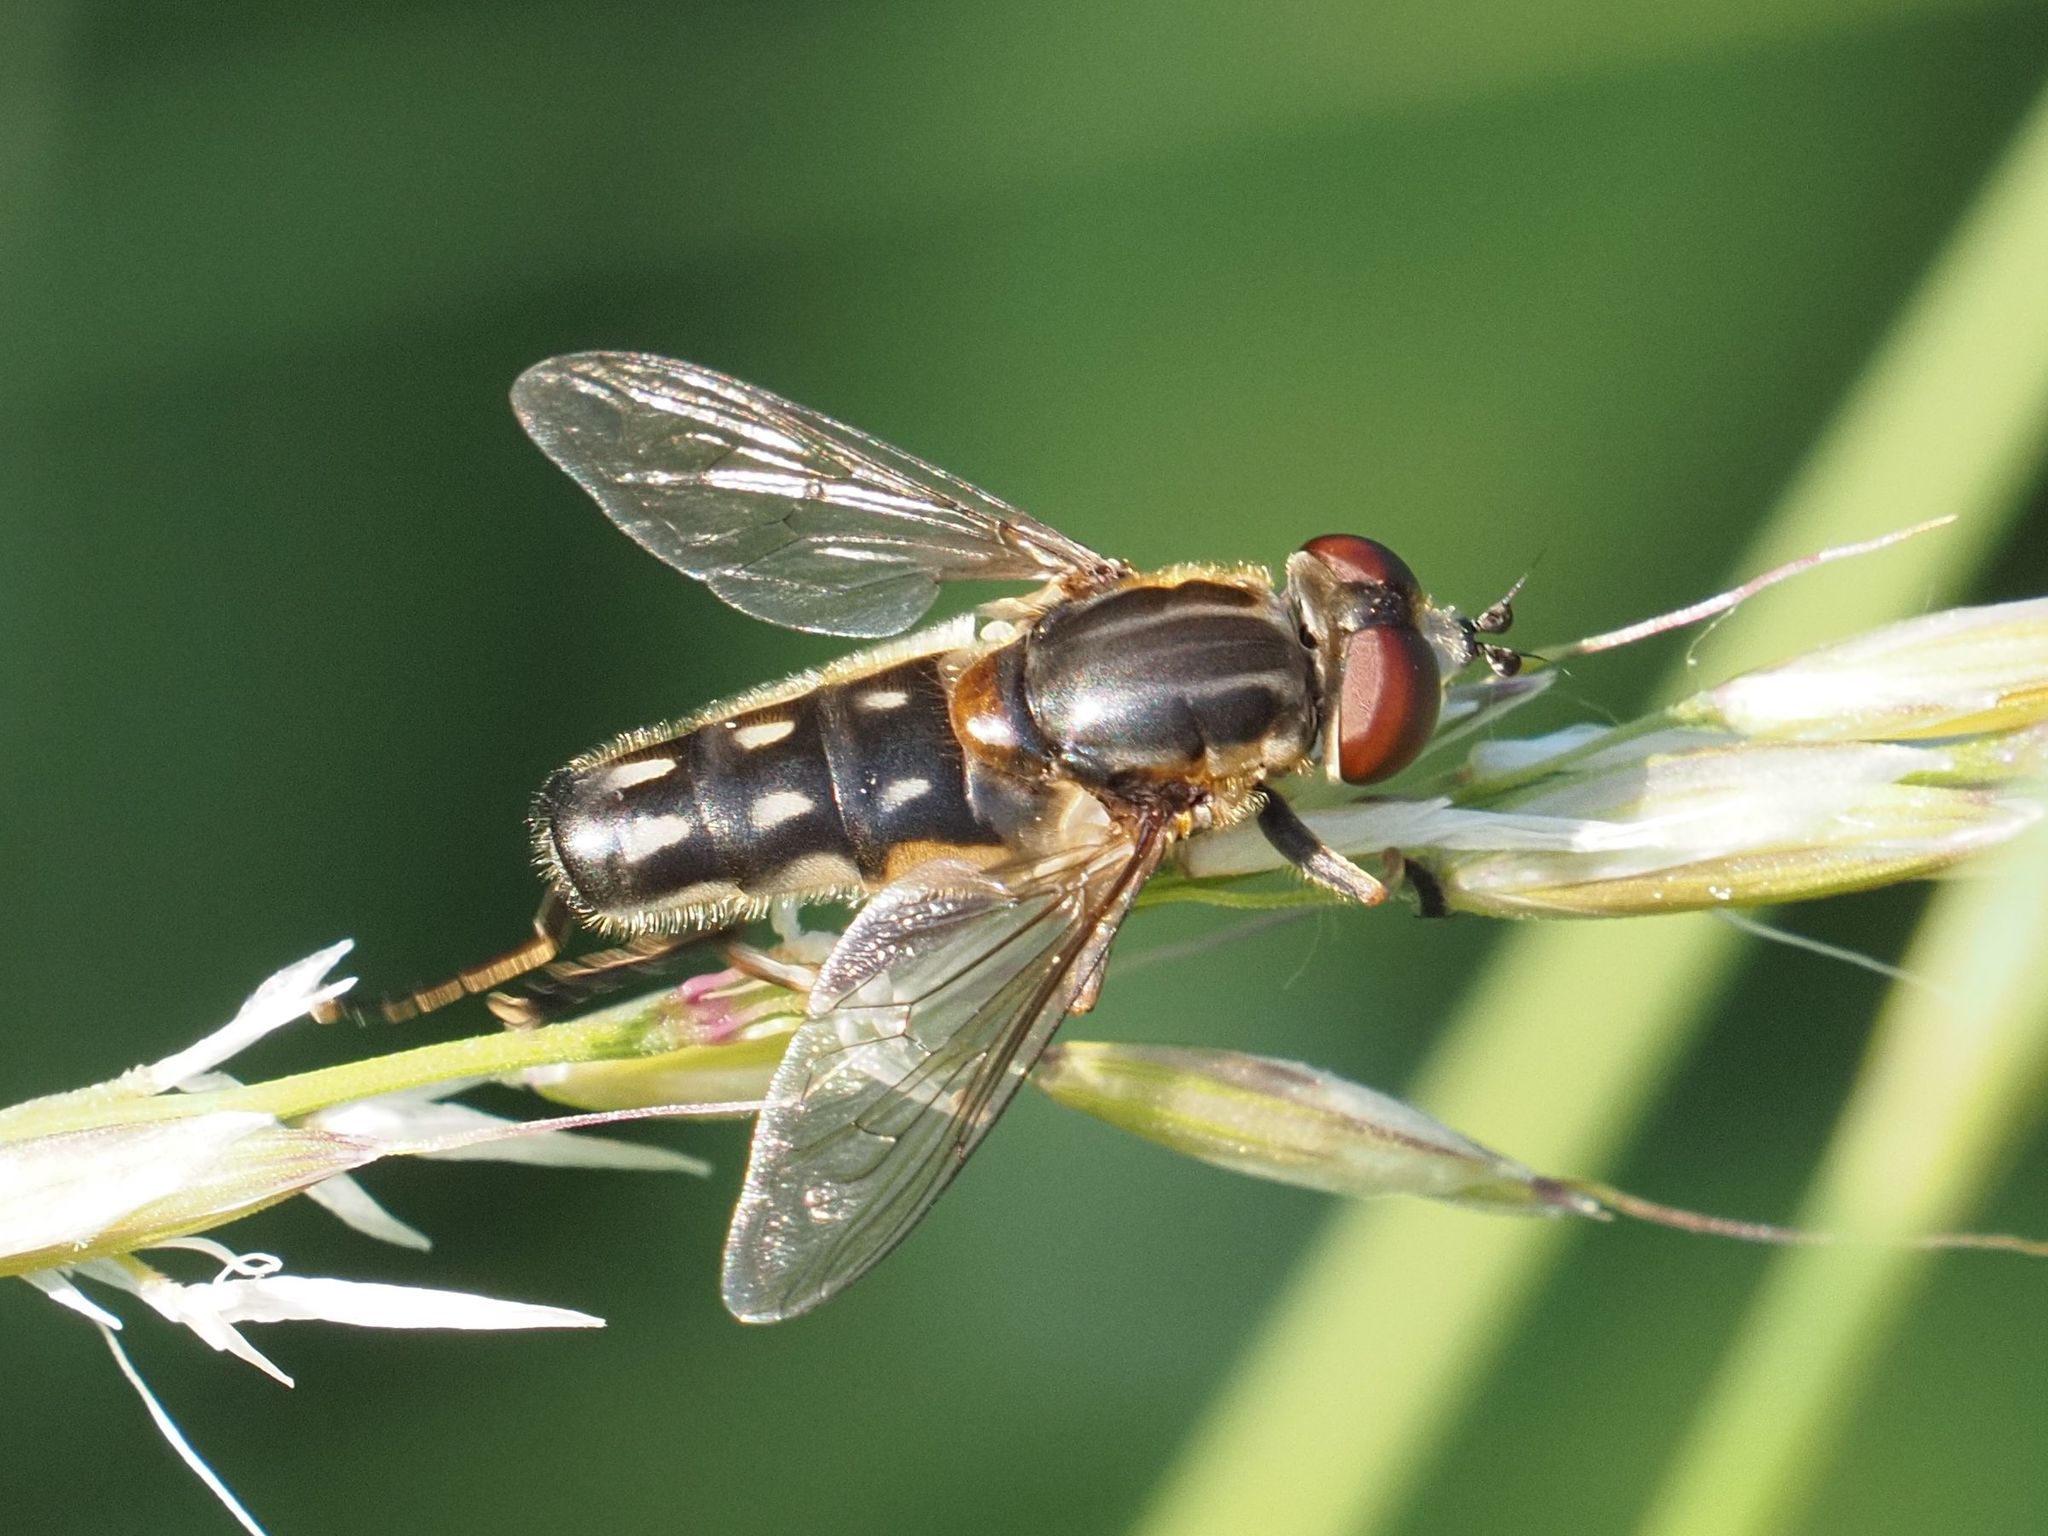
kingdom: Animalia
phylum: Arthropoda
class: Insecta
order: Diptera
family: Syrphidae
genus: Lejops
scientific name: Lejops vittatus
